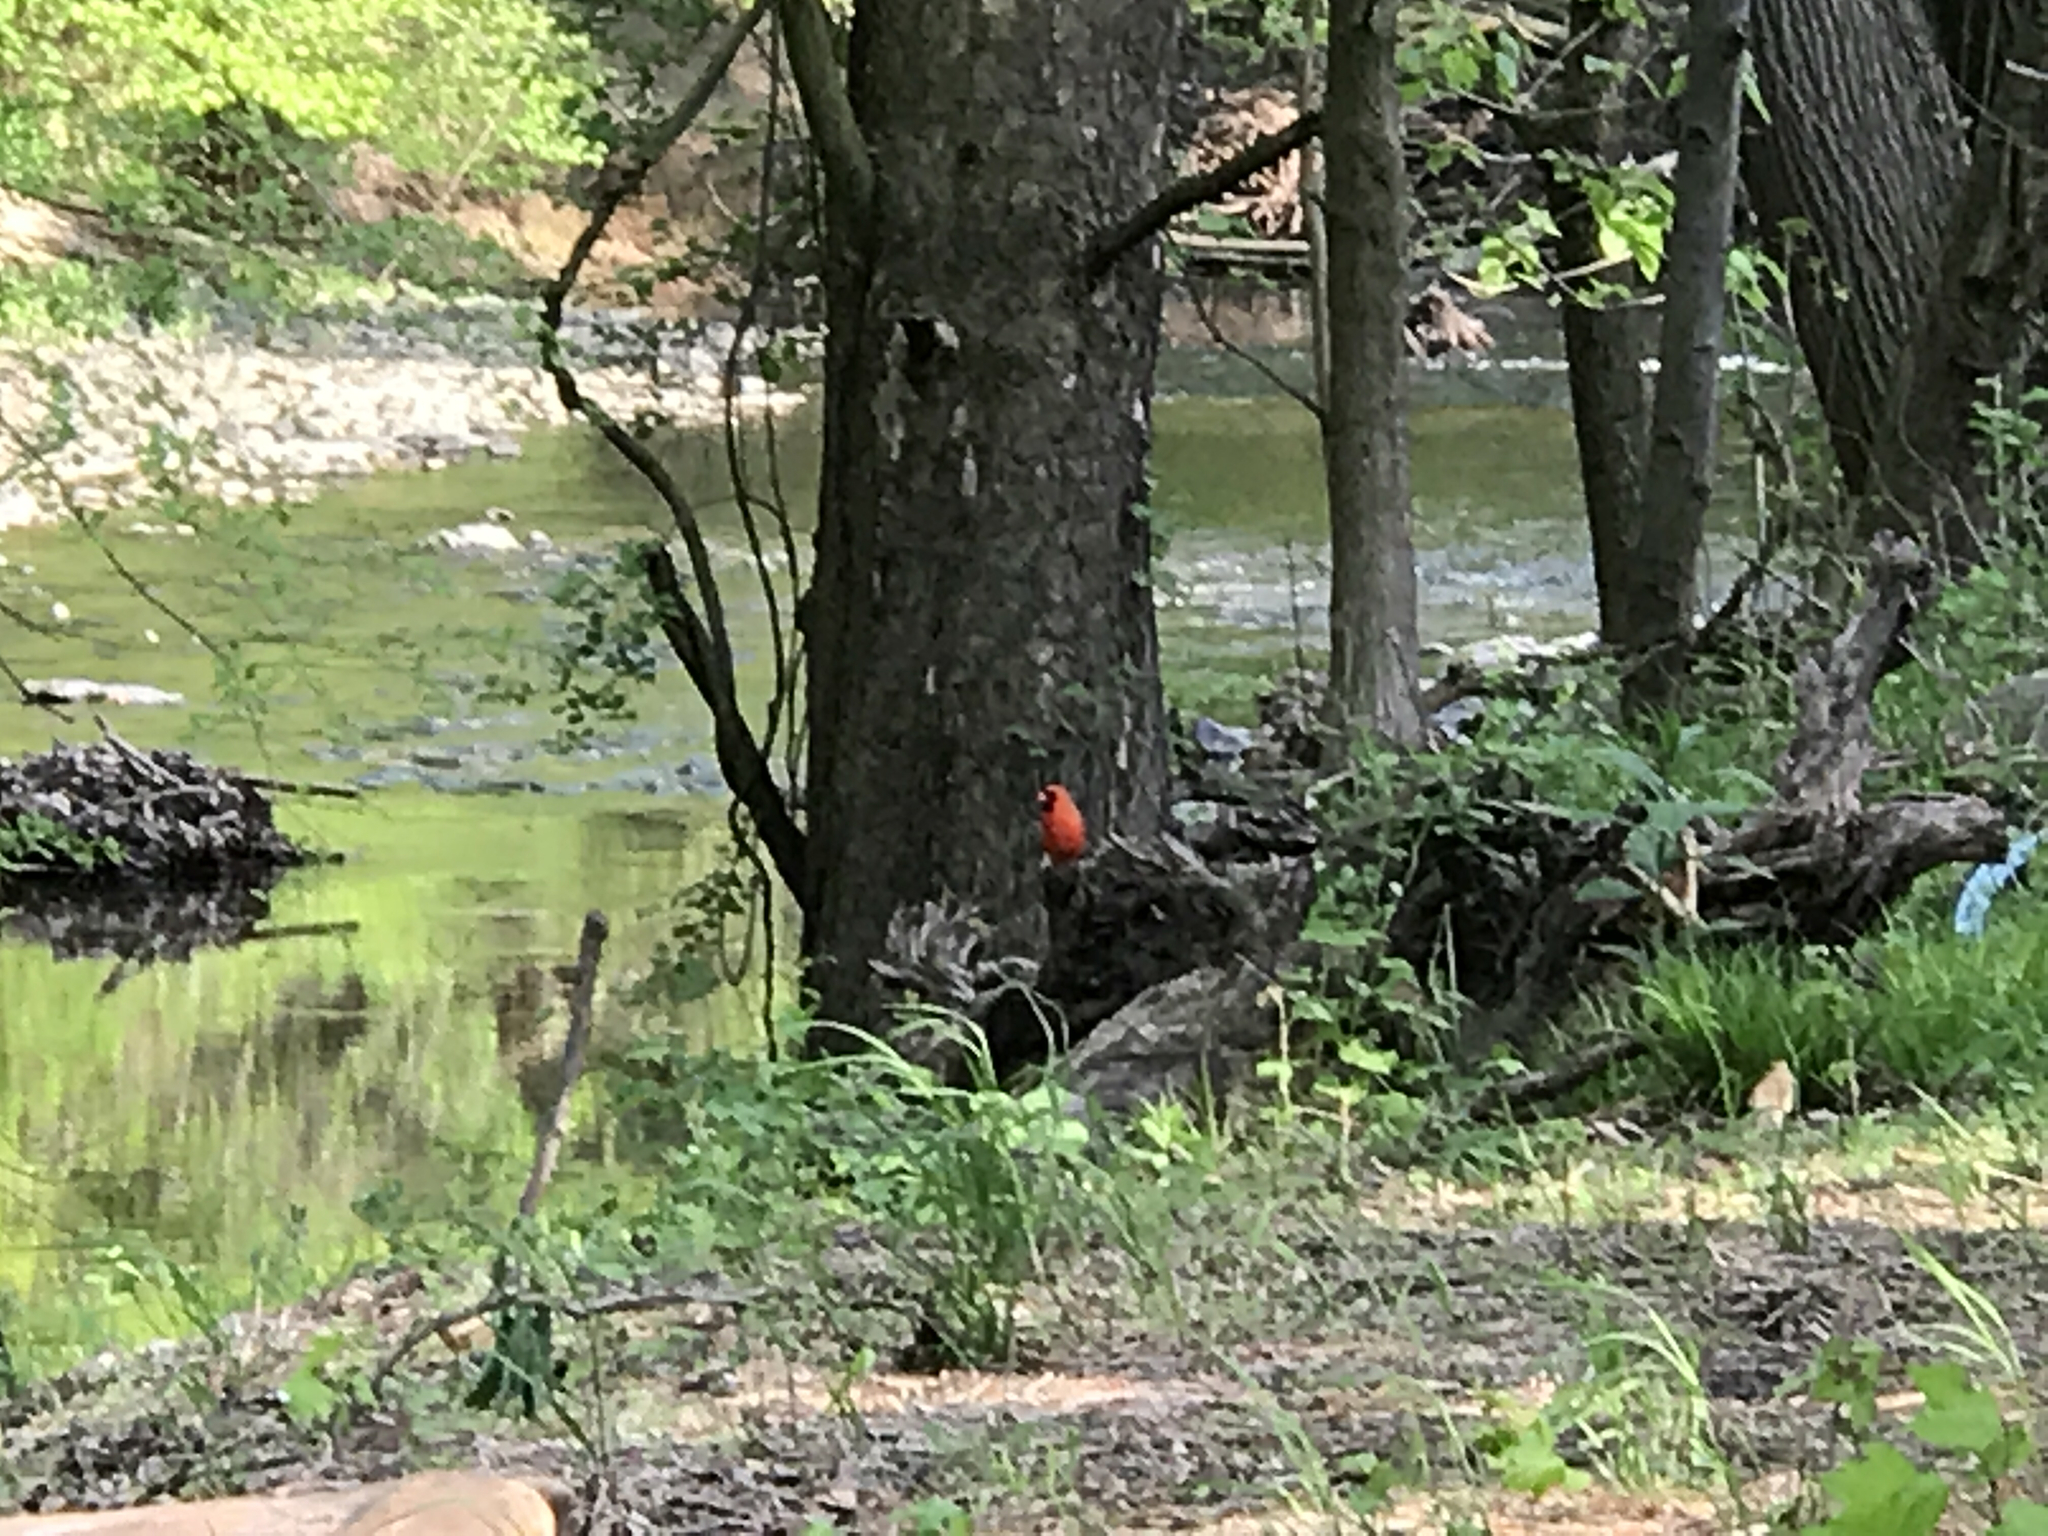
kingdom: Animalia
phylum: Chordata
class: Aves
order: Passeriformes
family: Cardinalidae
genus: Cardinalis
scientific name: Cardinalis cardinalis
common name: Northern cardinal
